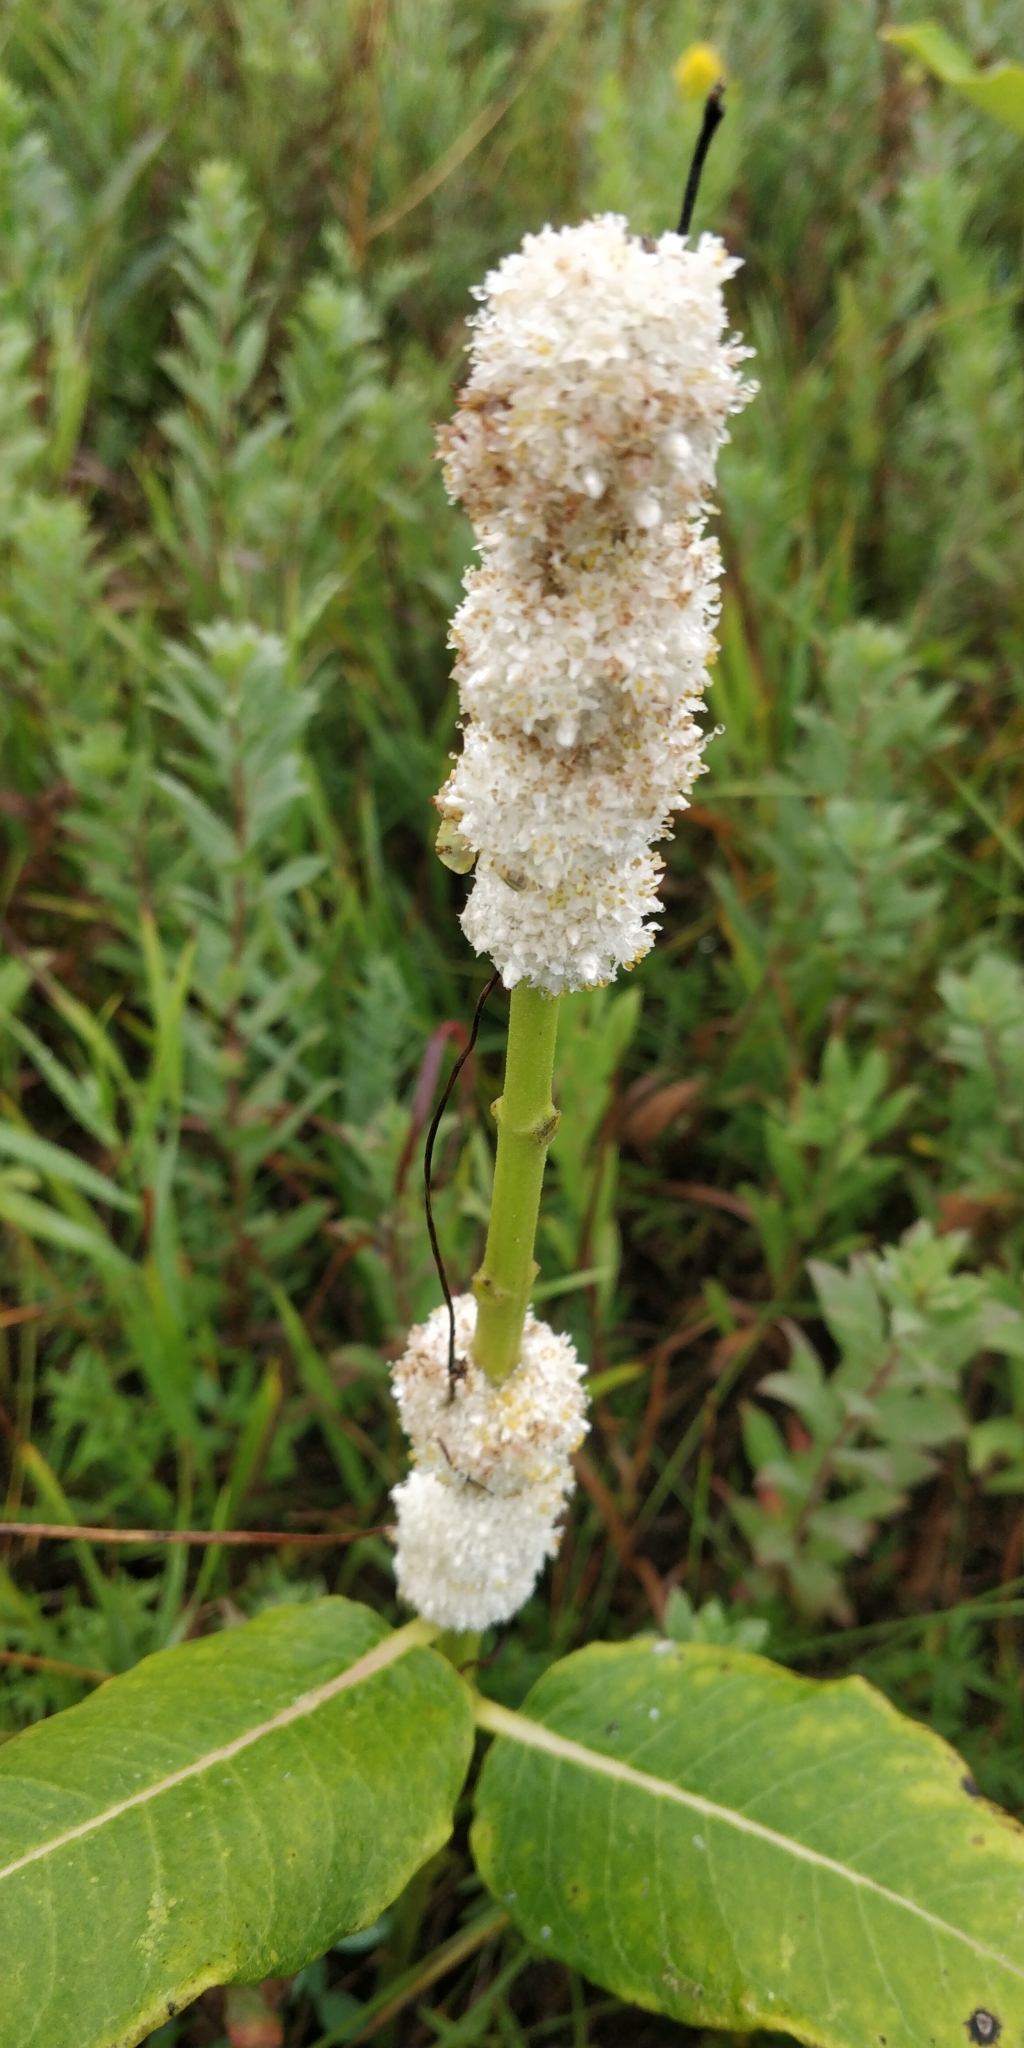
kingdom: Plantae
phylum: Tracheophyta
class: Magnoliopsida
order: Solanales
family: Convolvulaceae
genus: Cuscuta
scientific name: Cuscuta glomerata
